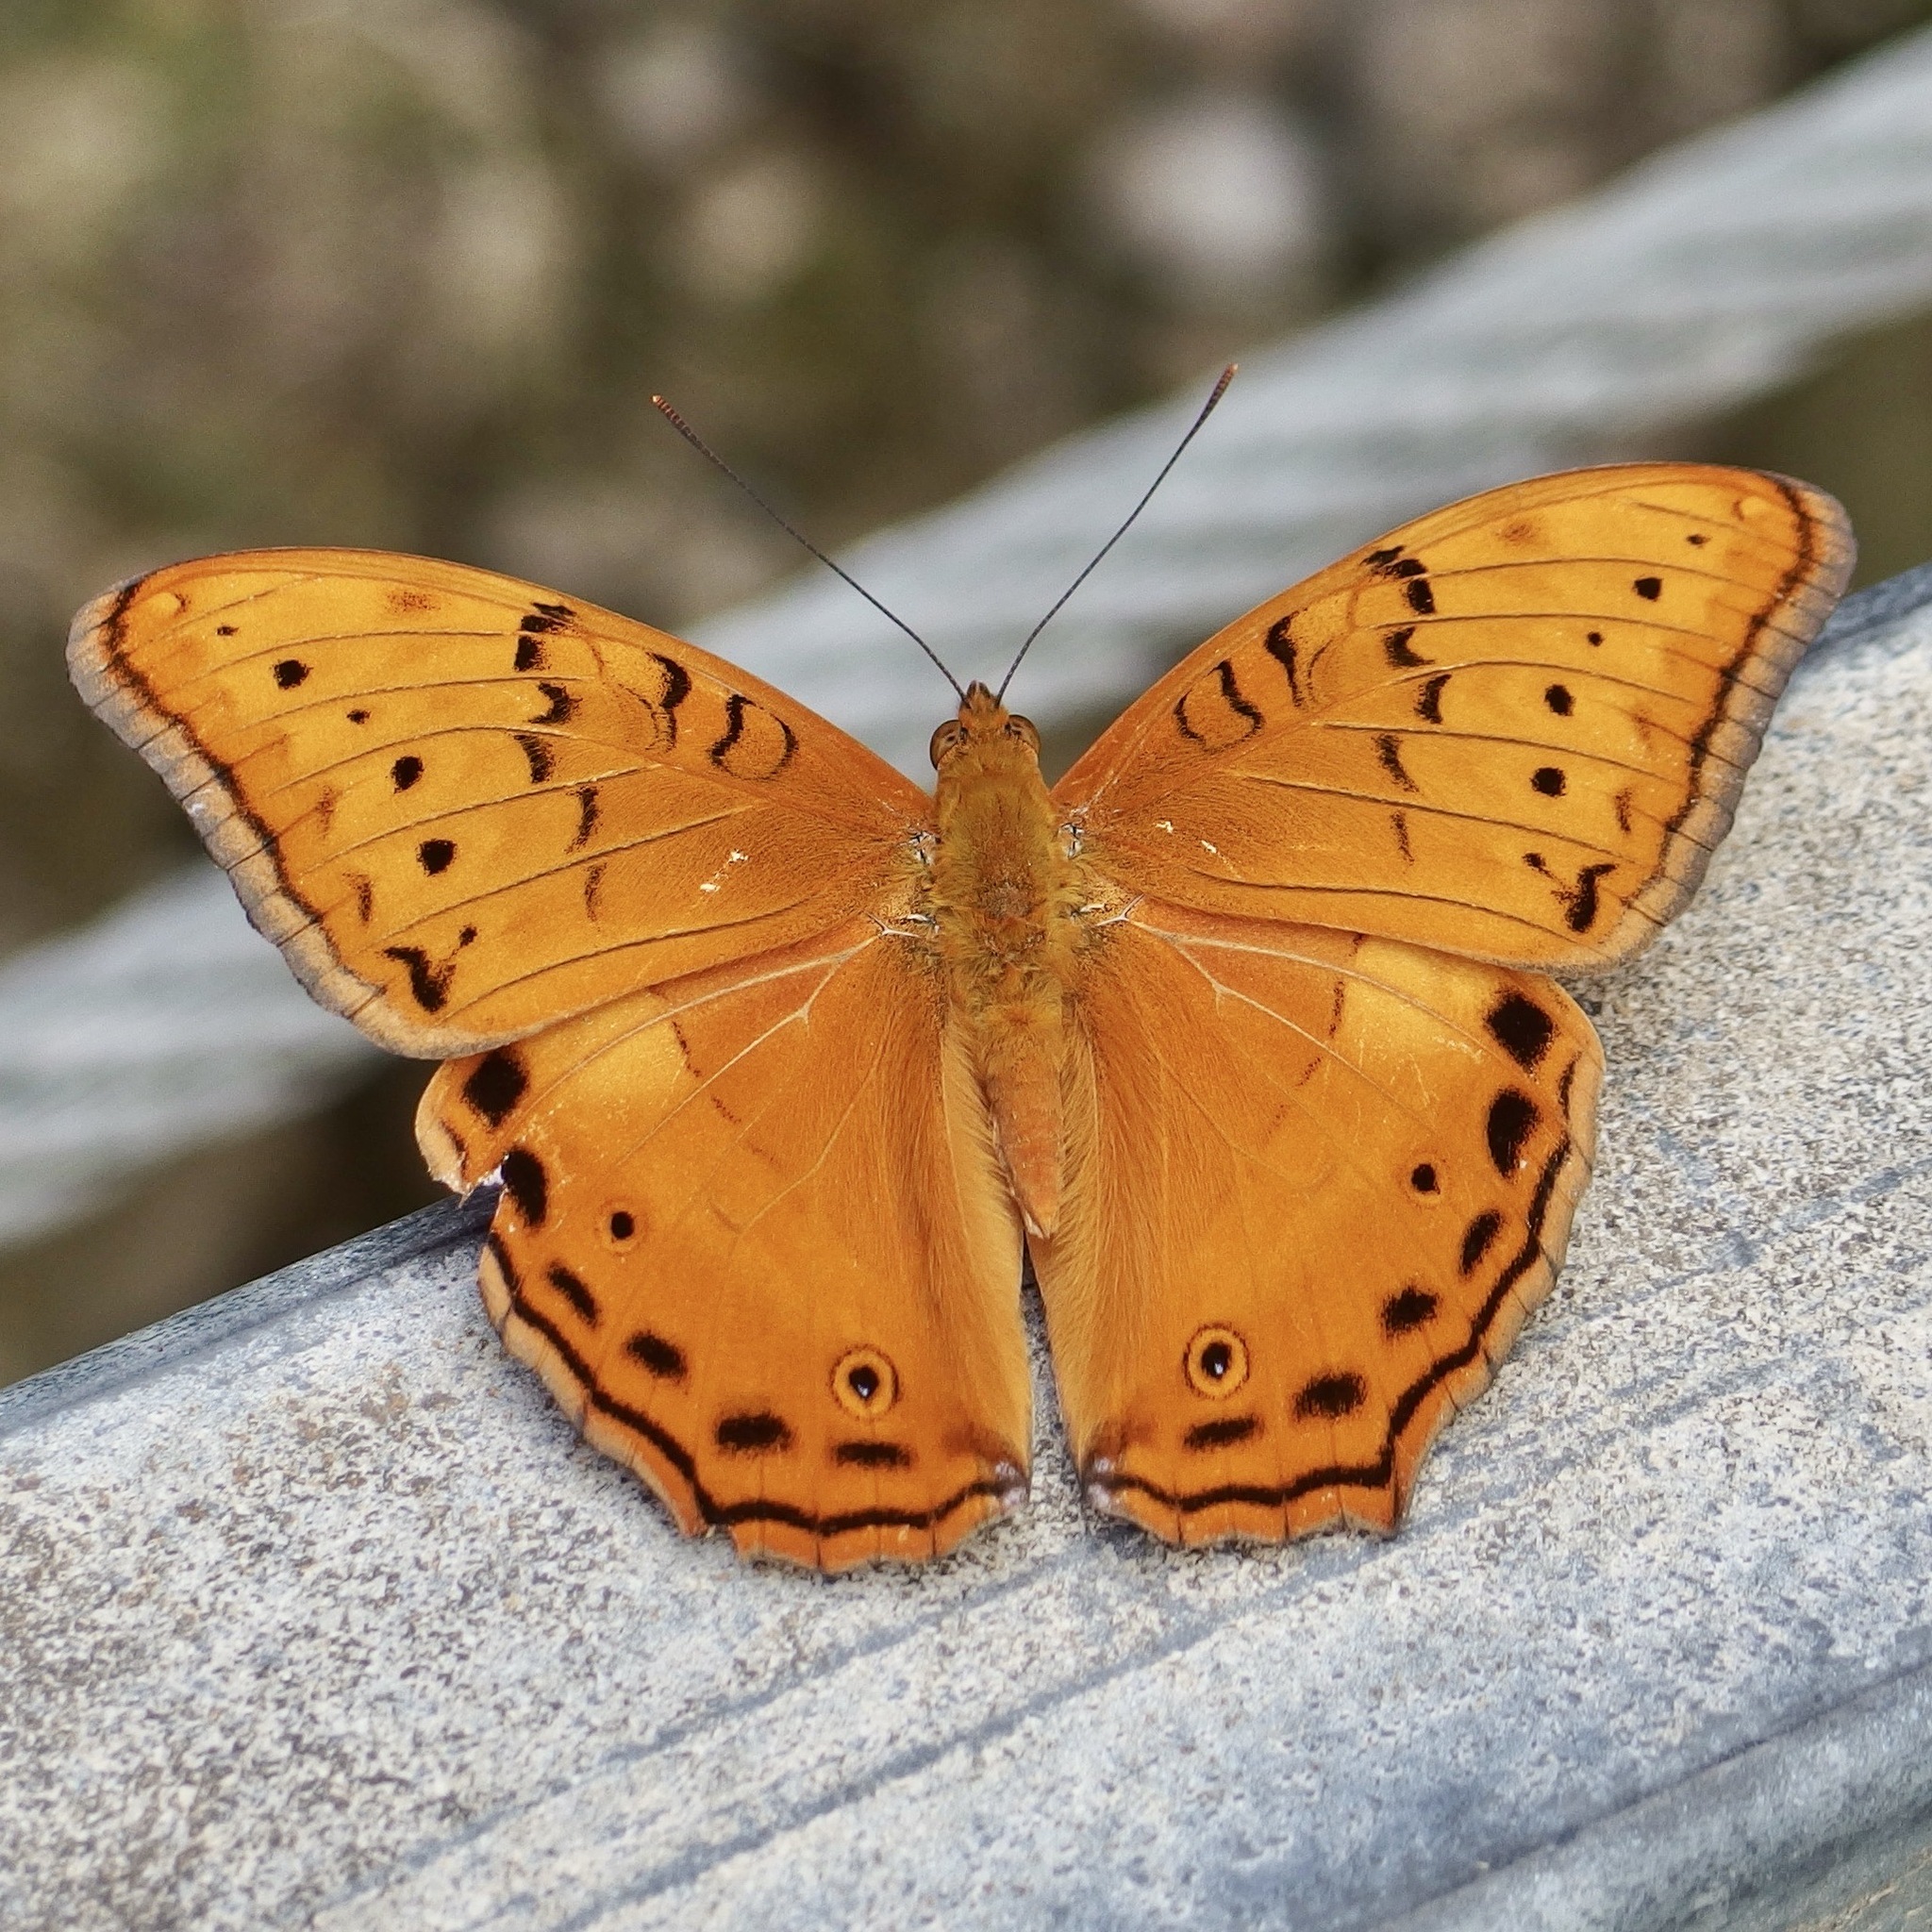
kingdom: Animalia
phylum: Arthropoda
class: Insecta
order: Lepidoptera
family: Nymphalidae
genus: Vindula
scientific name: Vindula arsinoe
